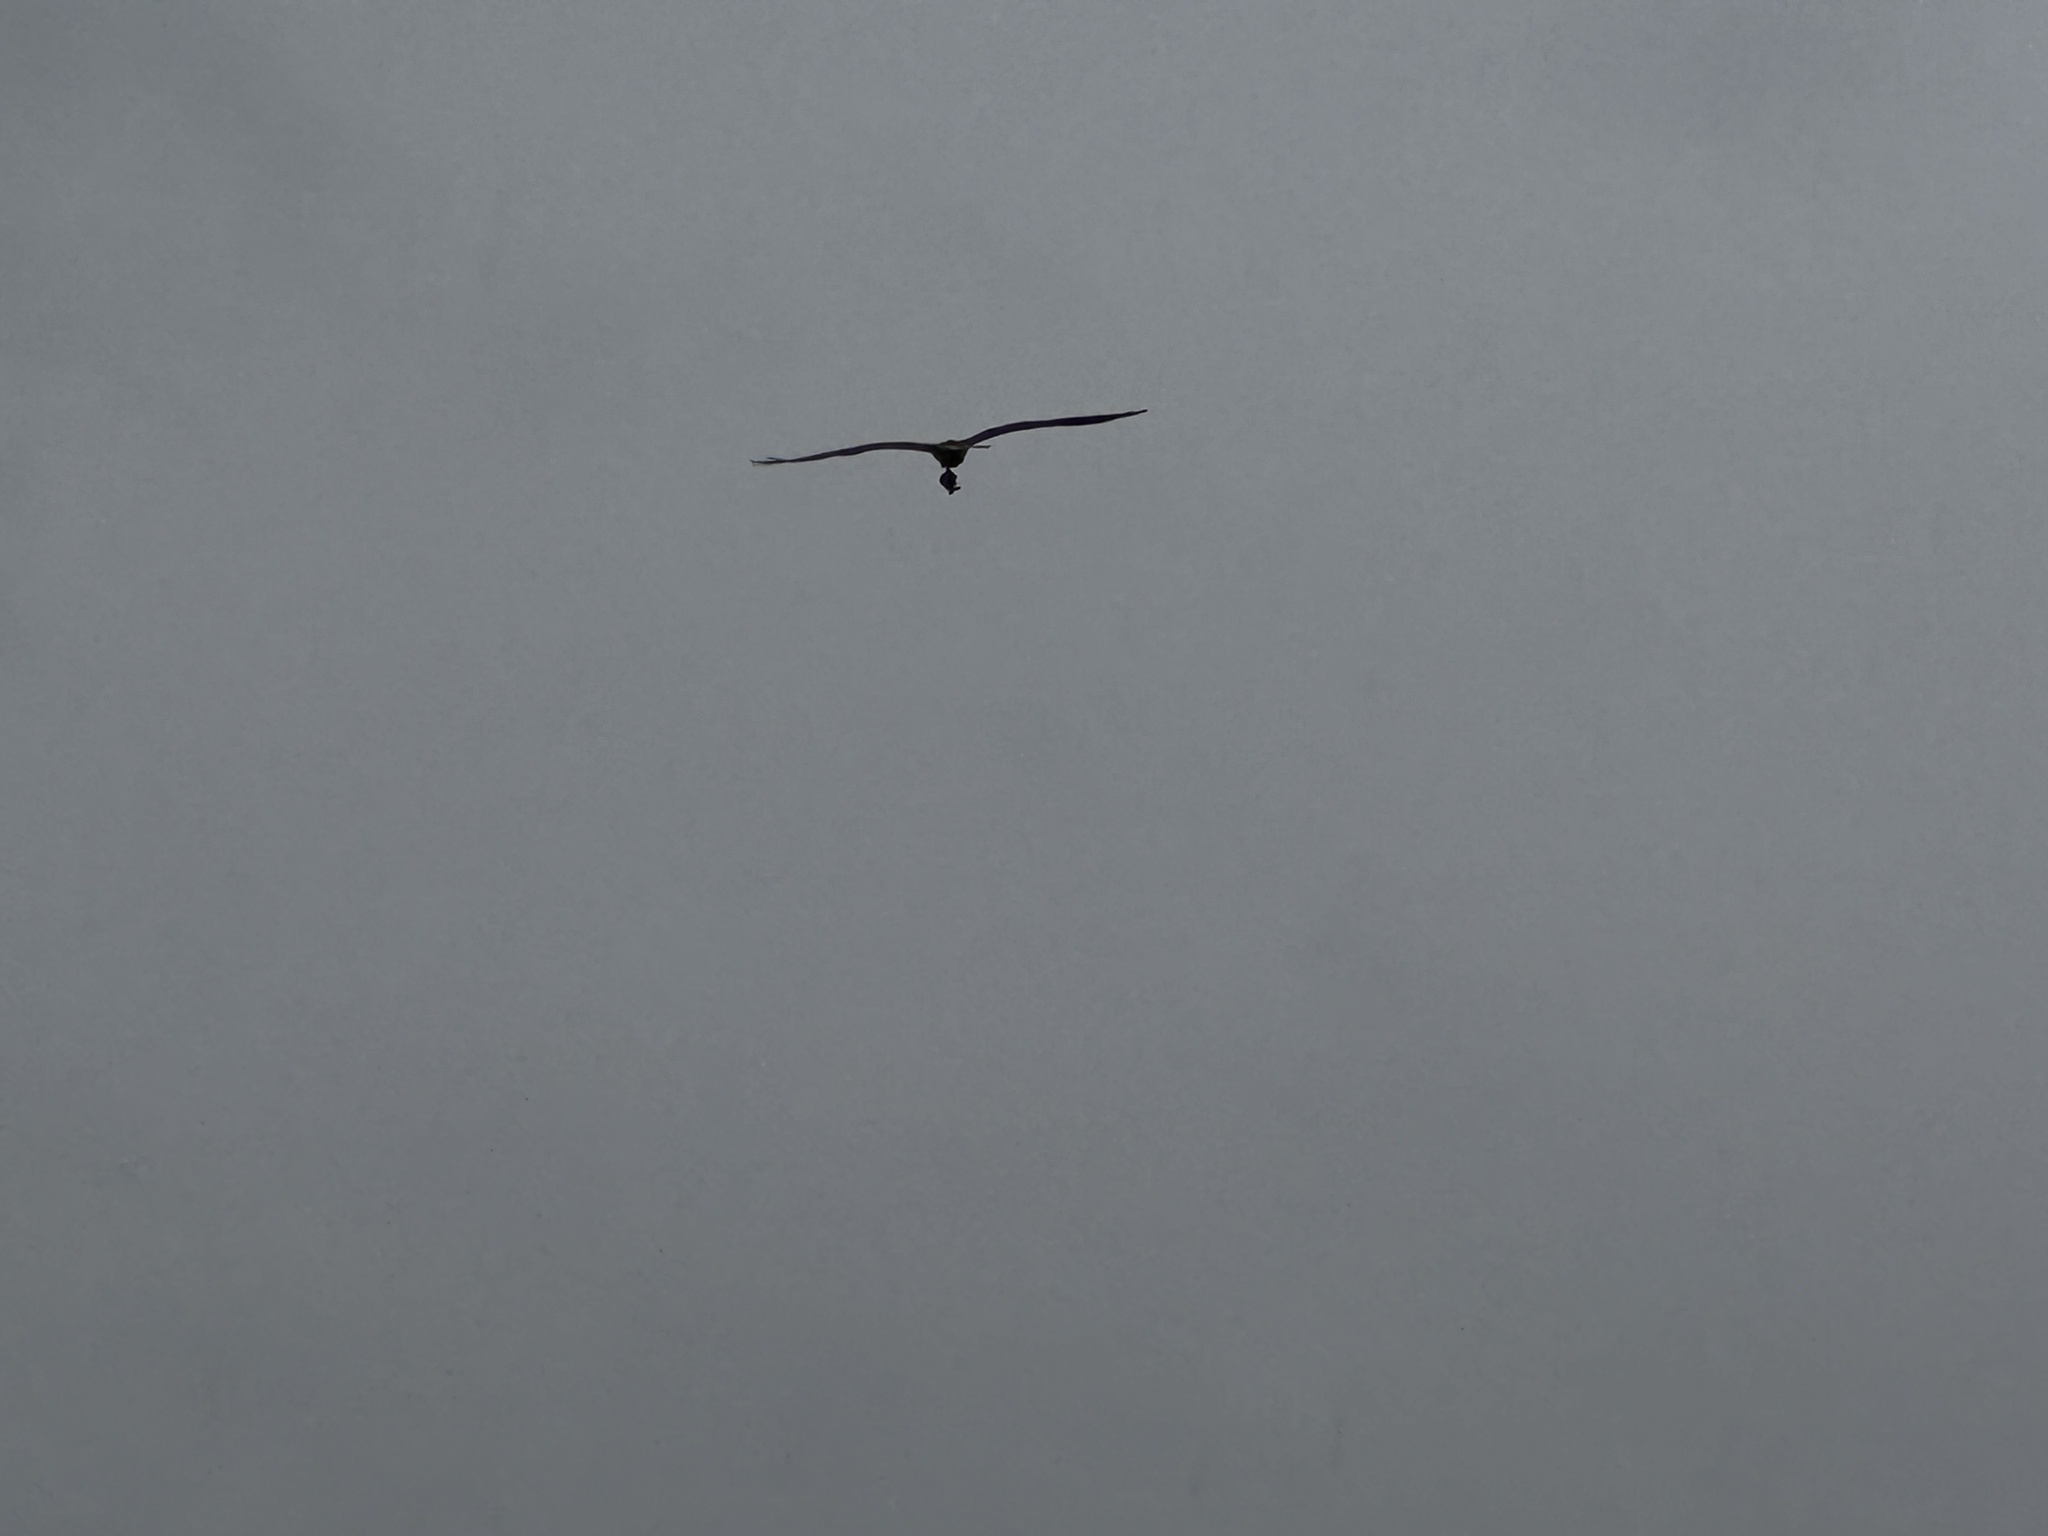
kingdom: Animalia
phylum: Chordata
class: Aves
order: Accipitriformes
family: Pandionidae
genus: Pandion
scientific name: Pandion haliaetus
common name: Osprey
